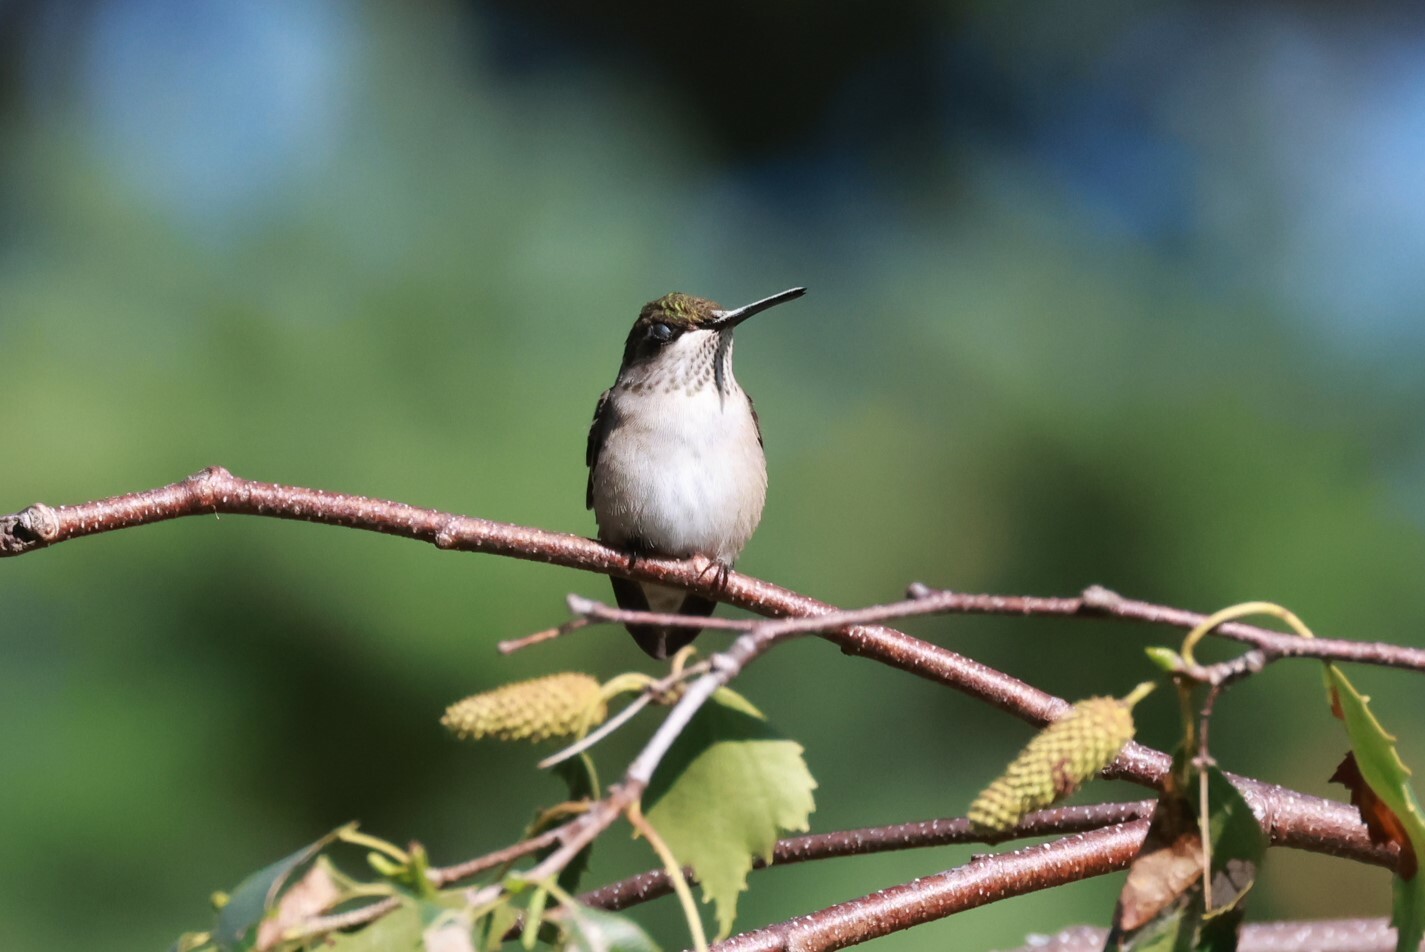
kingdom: Animalia
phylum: Chordata
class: Aves
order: Apodiformes
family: Trochilidae
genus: Archilochus
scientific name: Archilochus colubris
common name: Ruby-throated hummingbird
